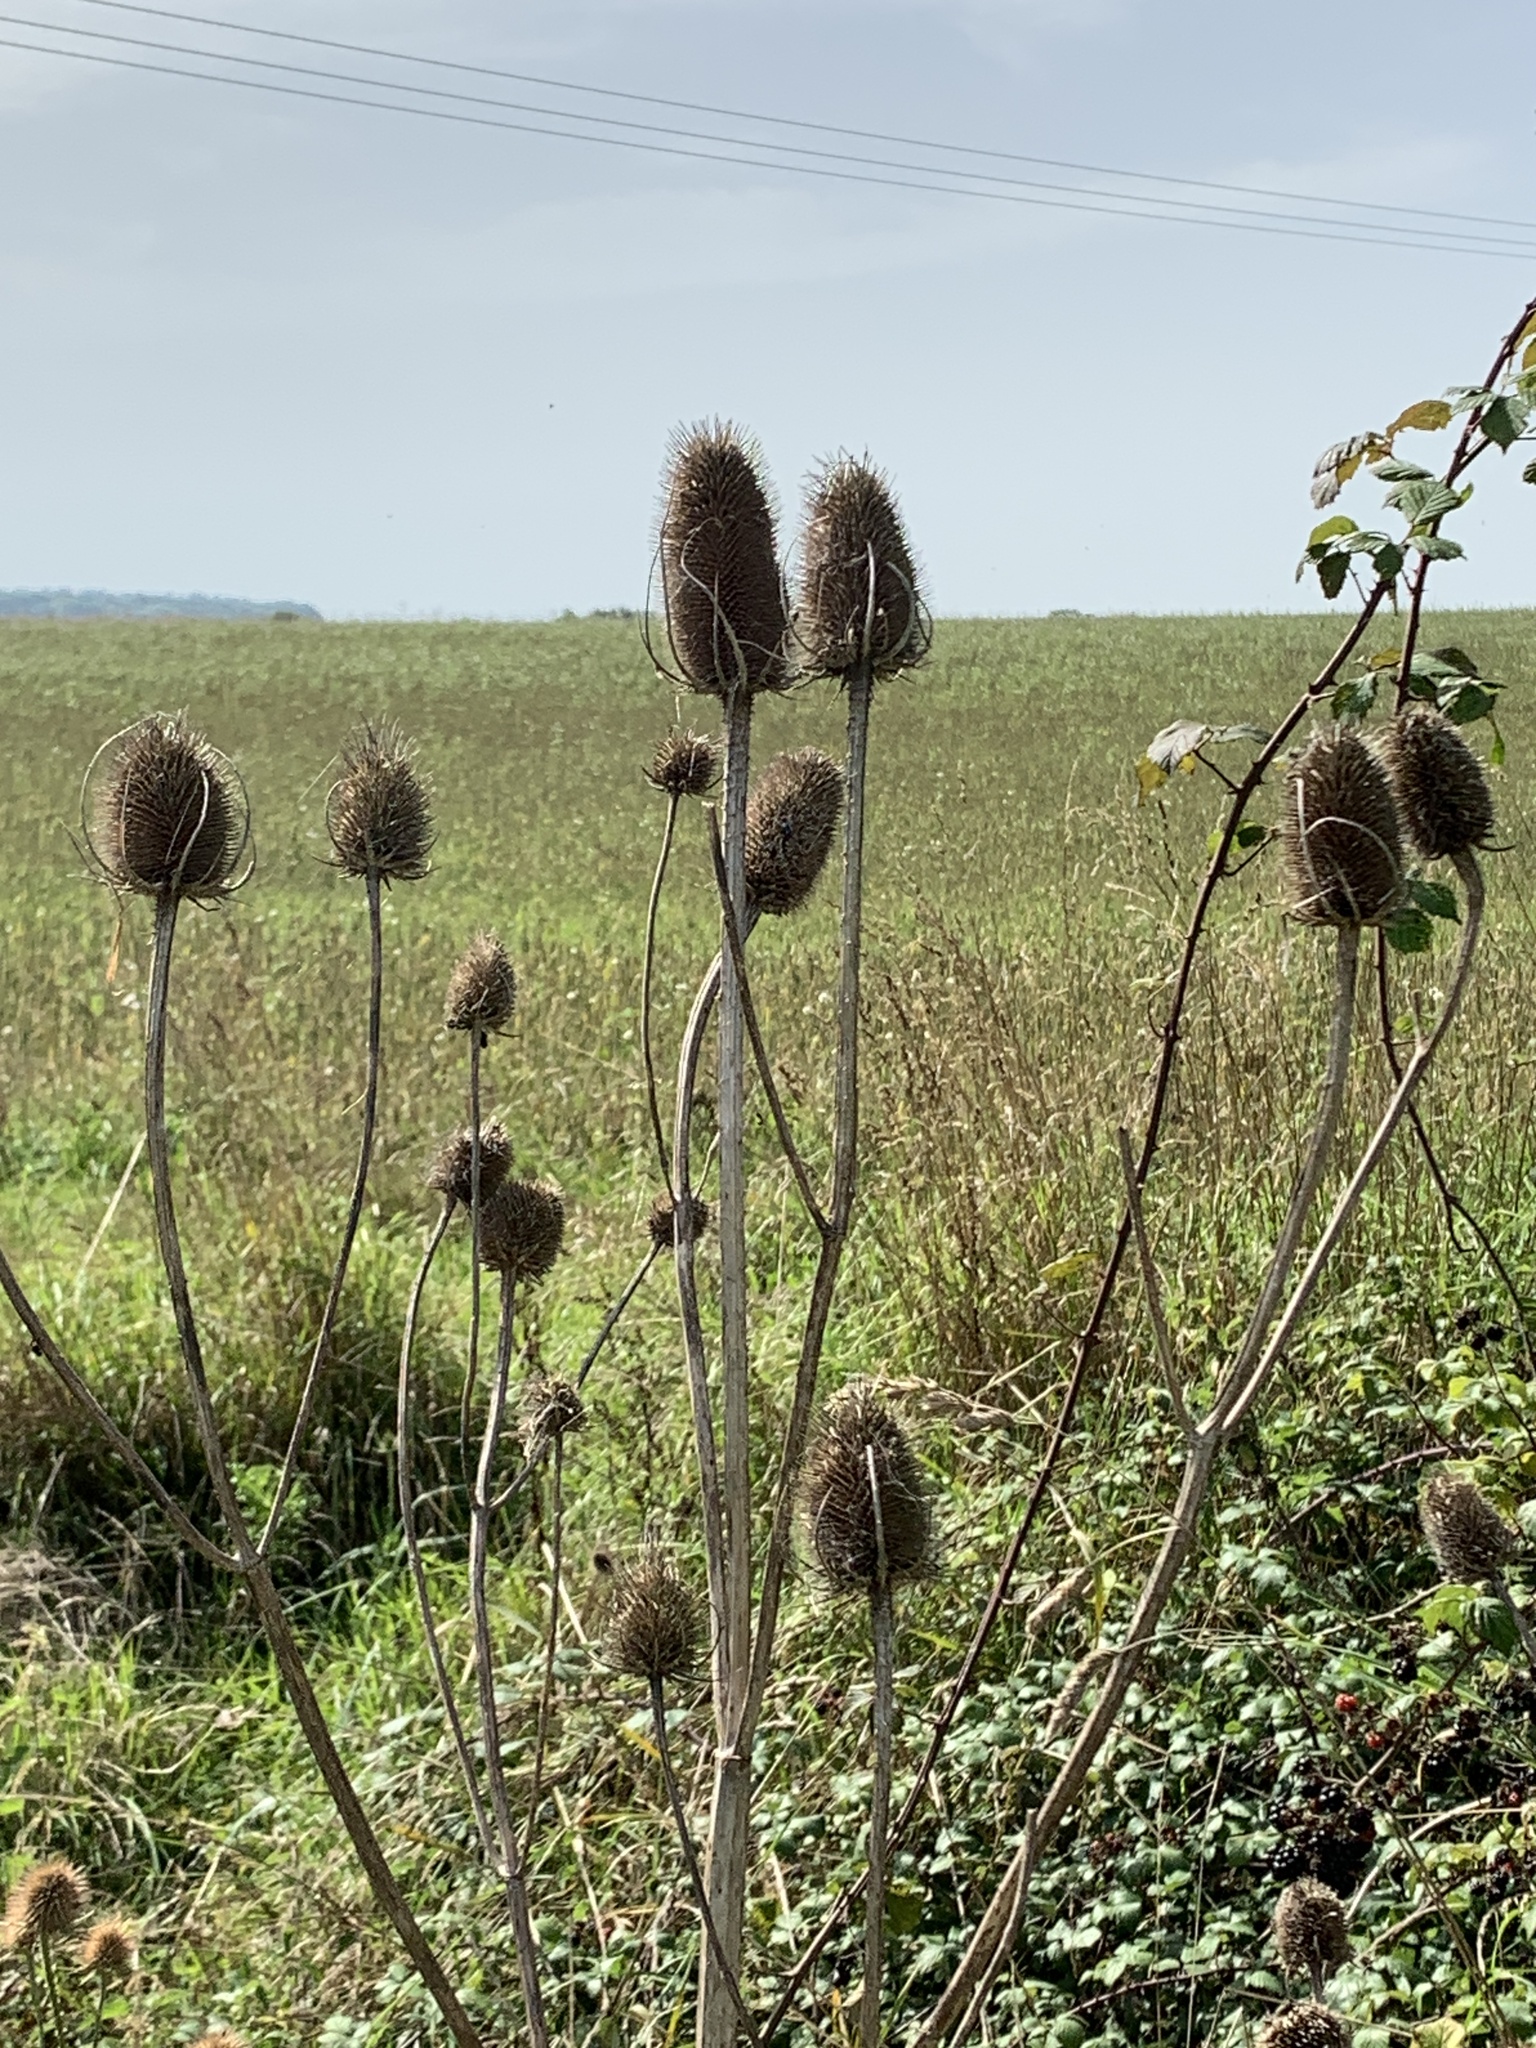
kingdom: Plantae
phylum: Tracheophyta
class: Magnoliopsida
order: Dipsacales
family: Caprifoliaceae
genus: Dipsacus
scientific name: Dipsacus fullonum
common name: Teasel
